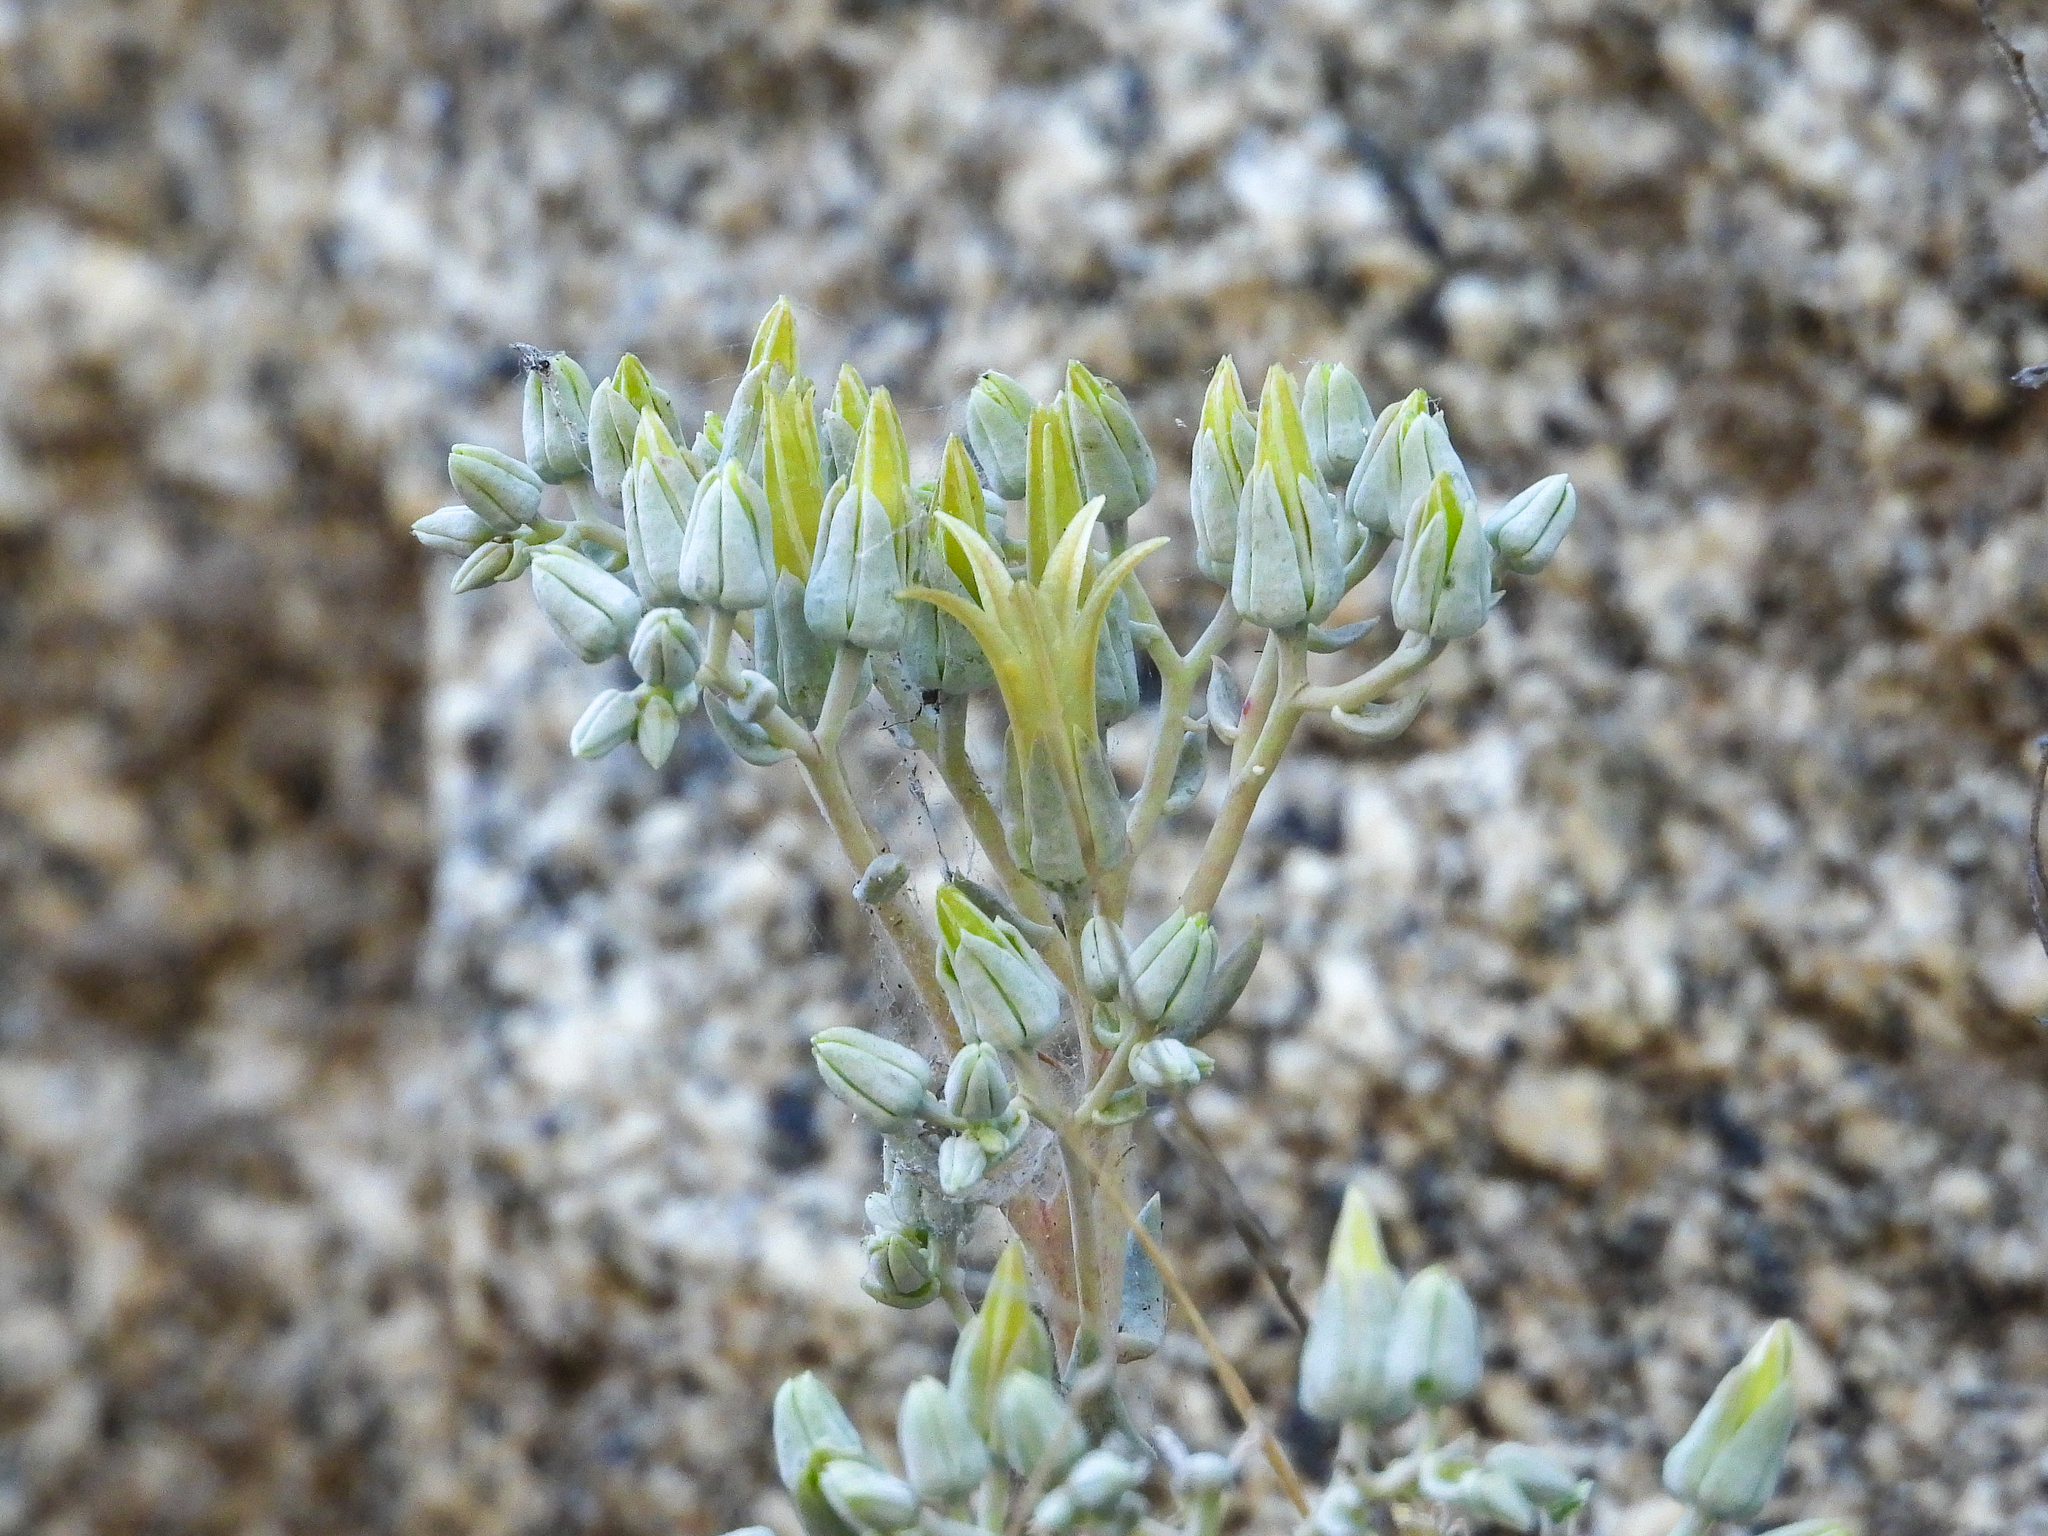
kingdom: Plantae
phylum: Tracheophyta
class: Magnoliopsida
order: Saxifragales
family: Crassulaceae
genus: Dudleya
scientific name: Dudleya abramsii
